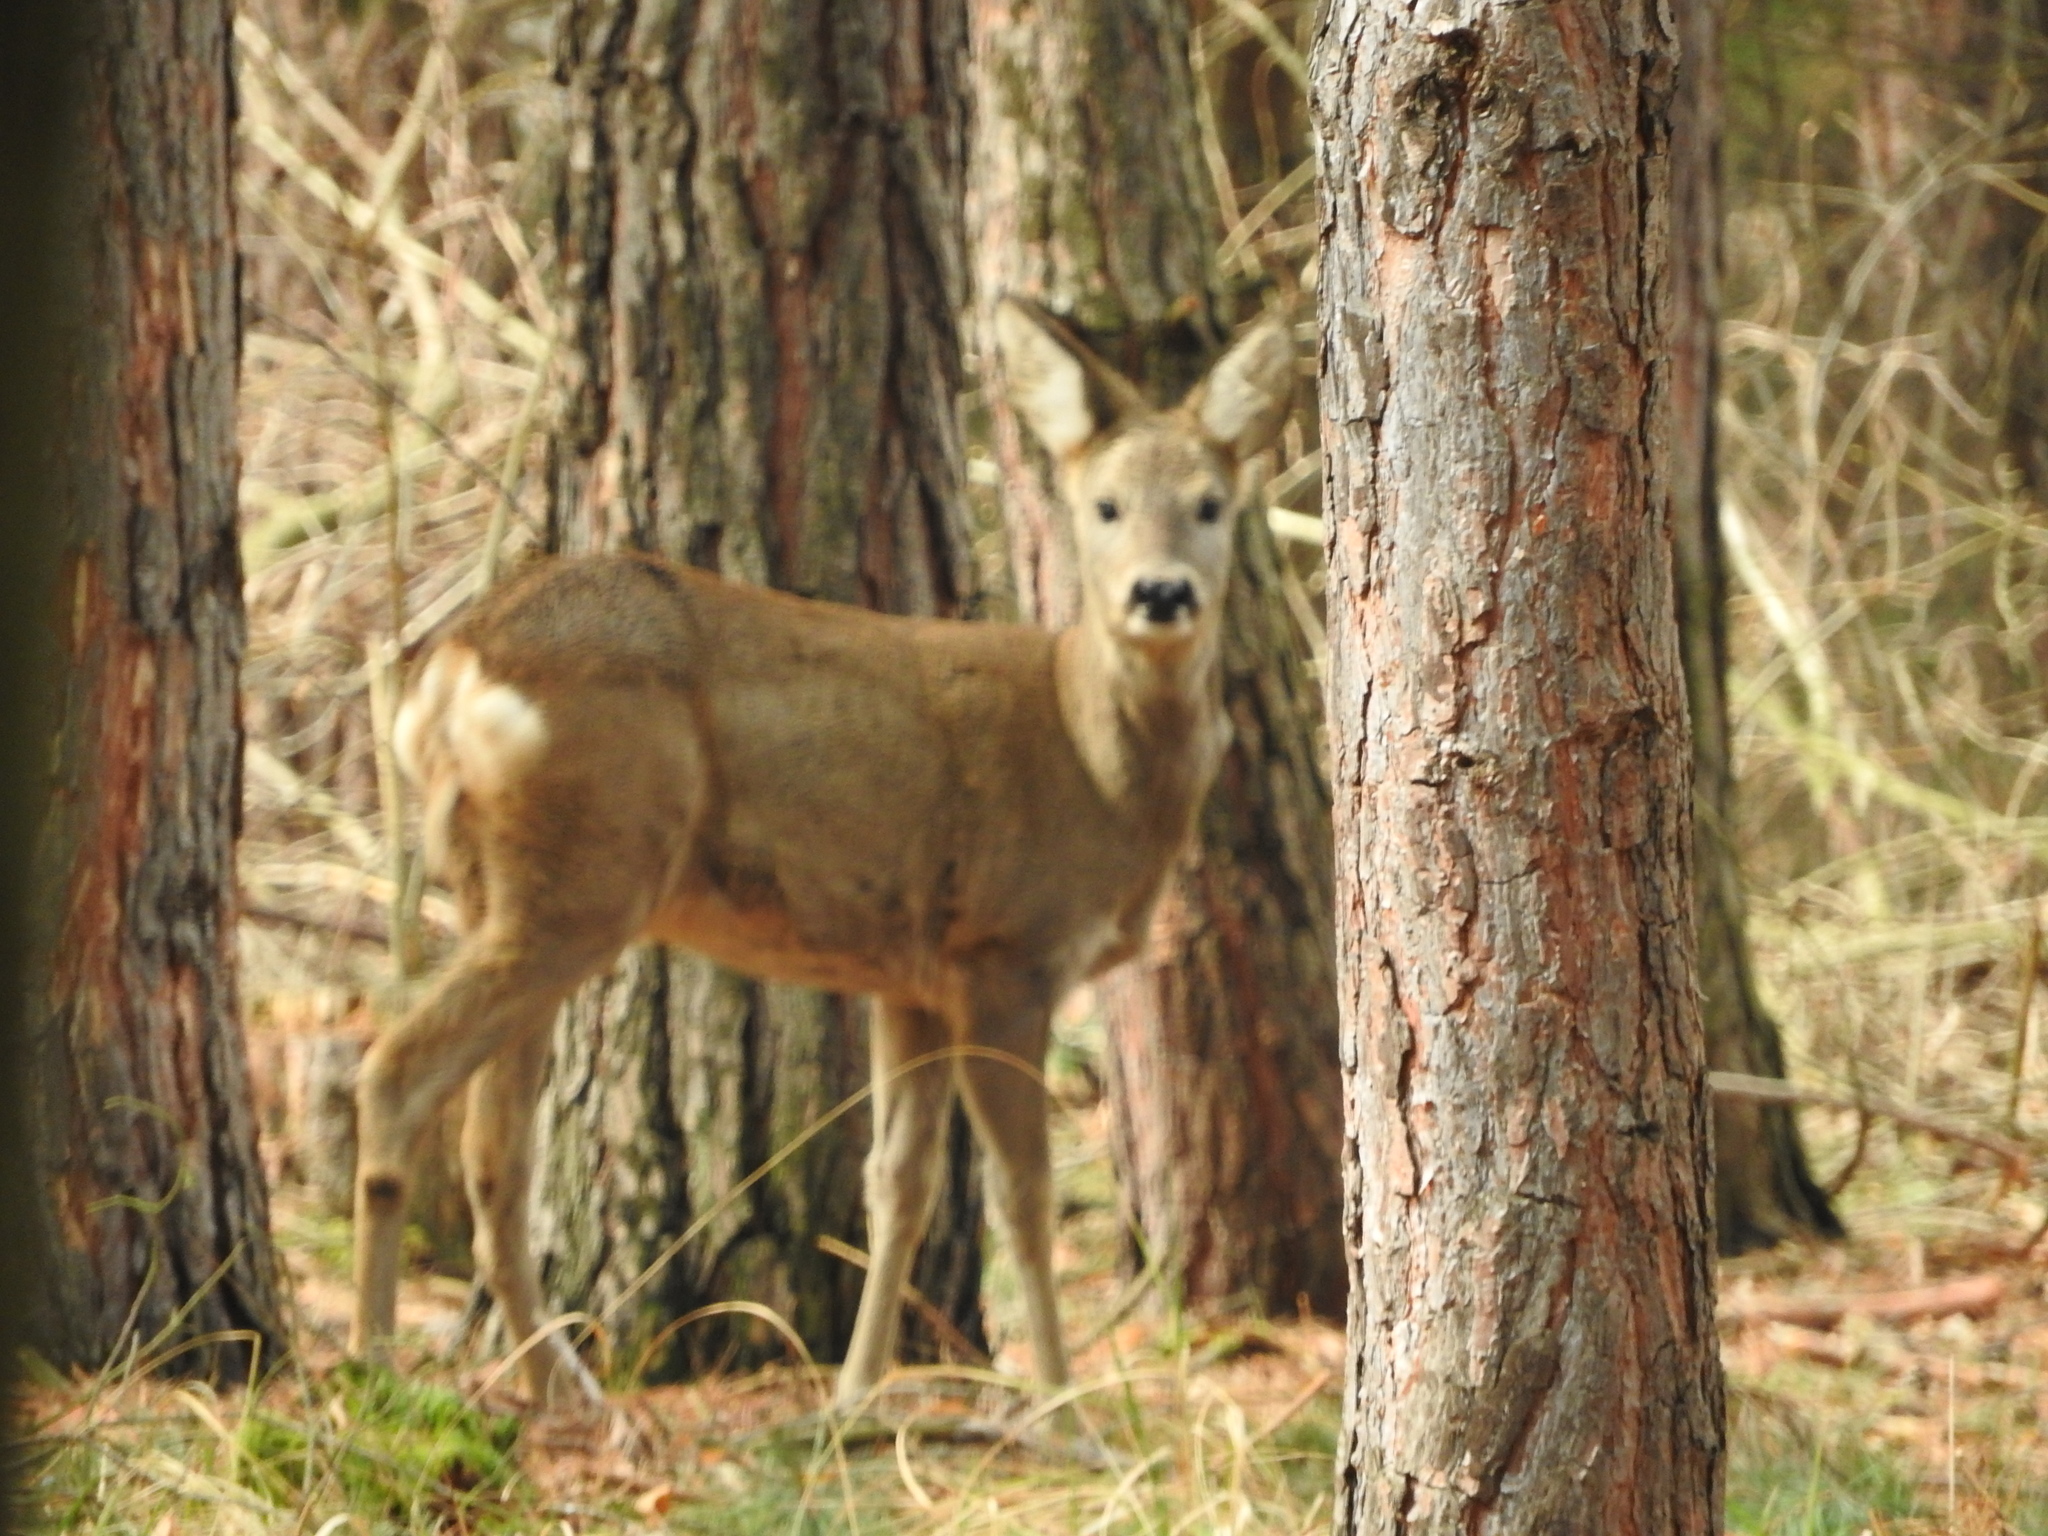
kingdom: Animalia
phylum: Chordata
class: Mammalia
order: Artiodactyla
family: Cervidae
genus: Capreolus
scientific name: Capreolus capreolus
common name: Western roe deer
